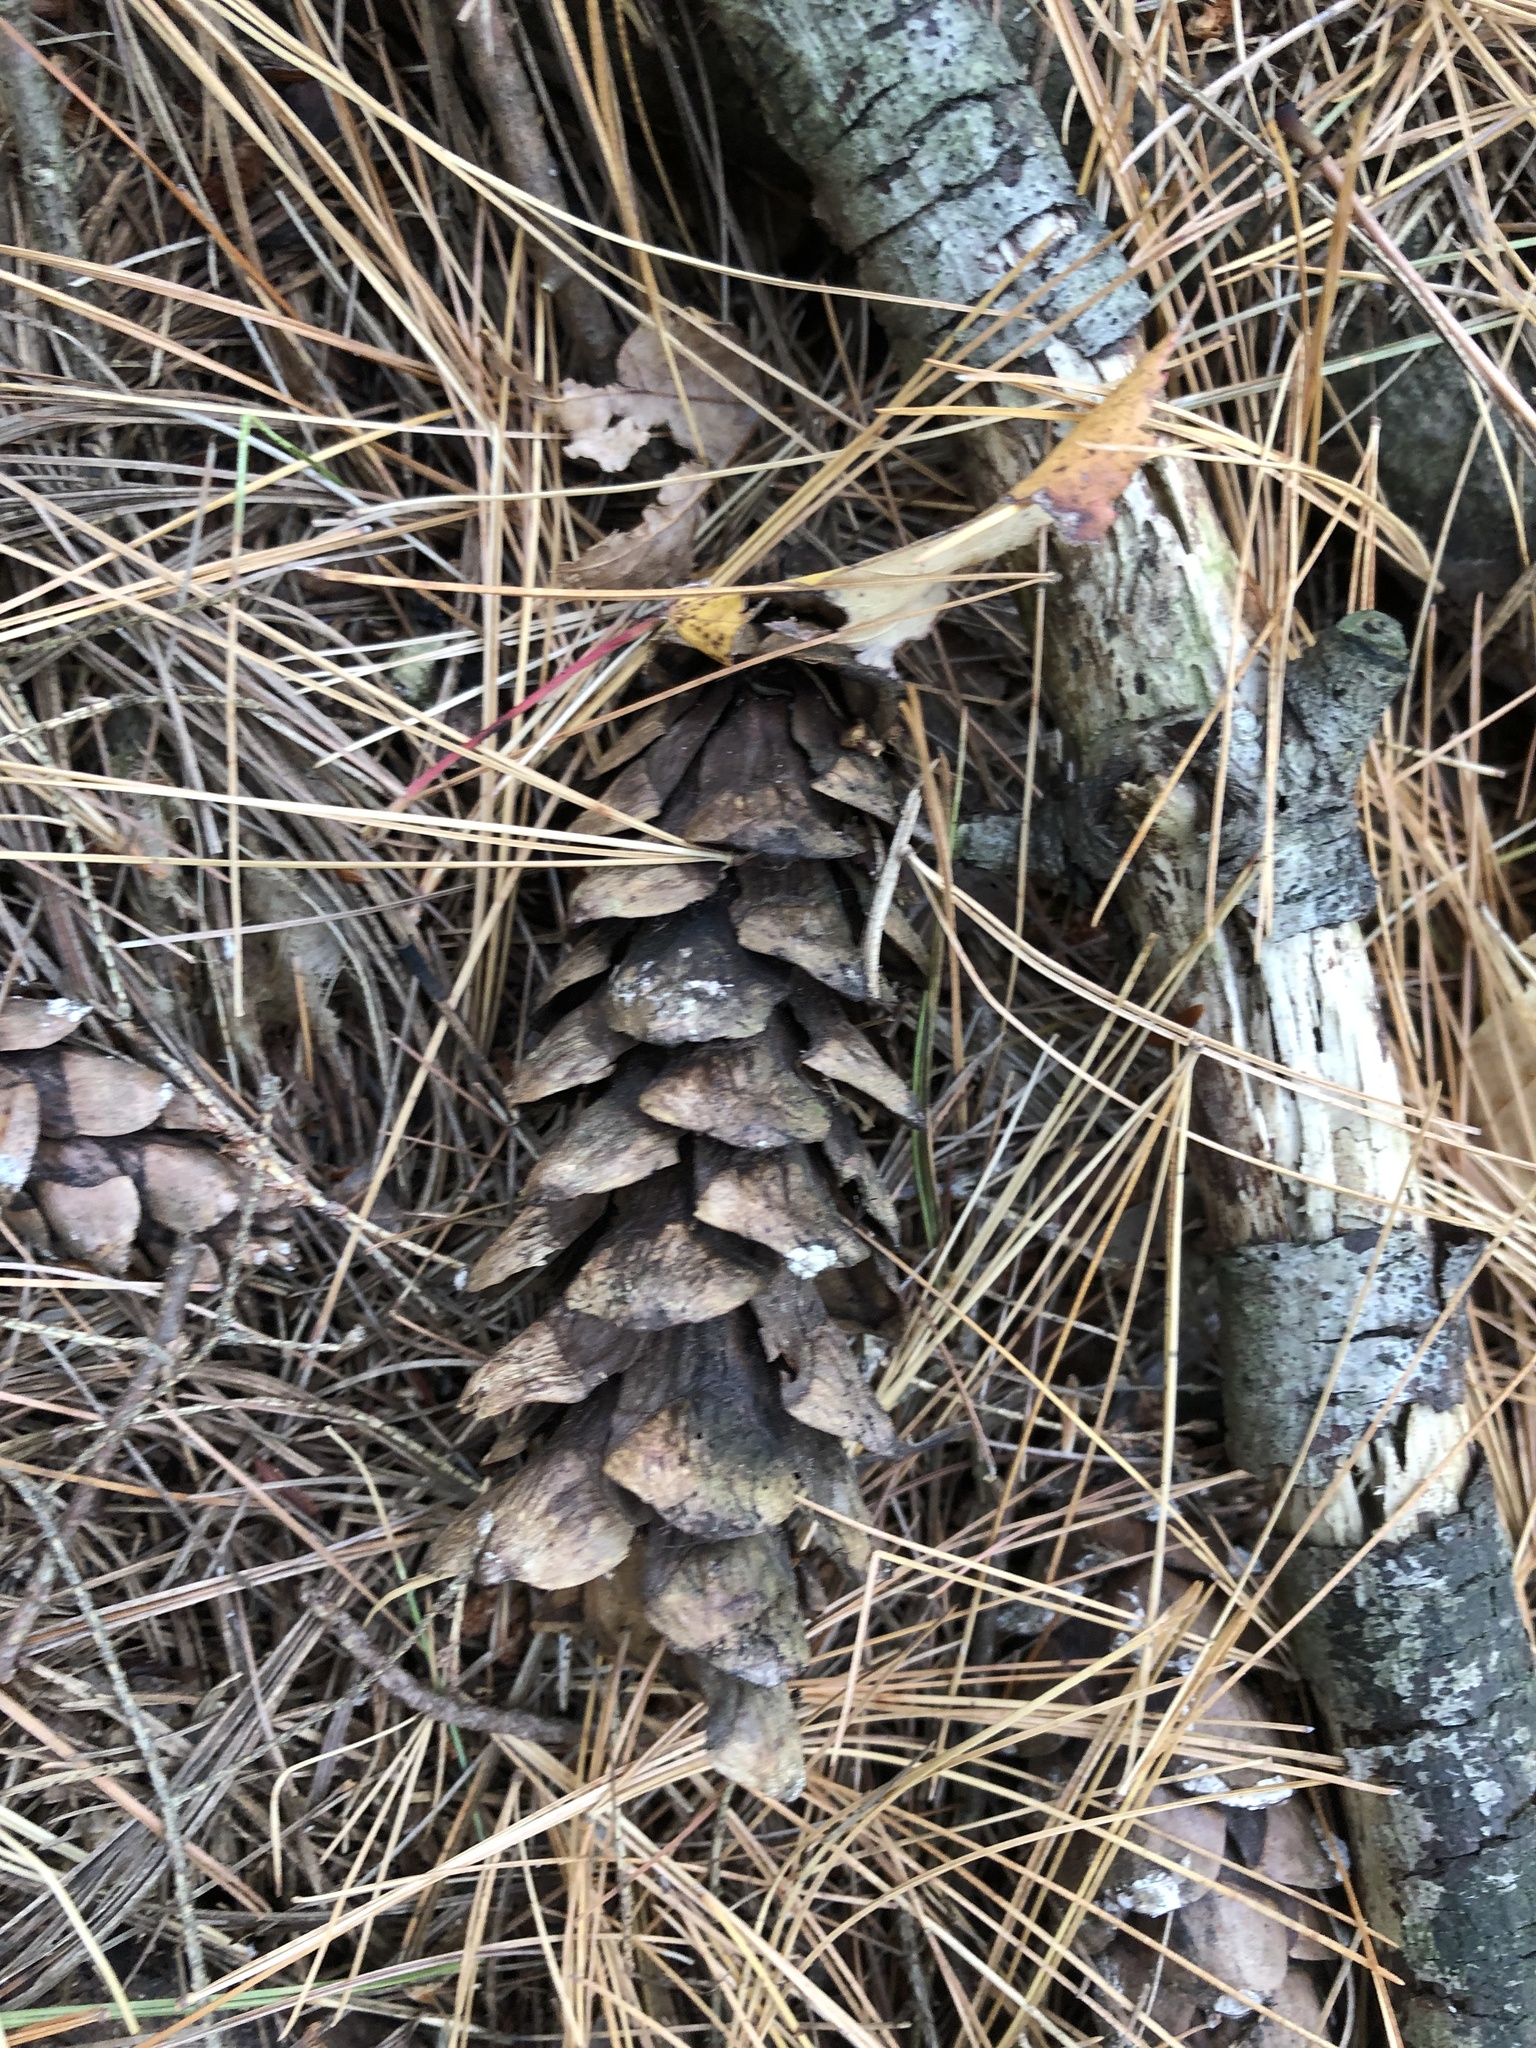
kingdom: Plantae
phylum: Tracheophyta
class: Pinopsida
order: Pinales
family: Pinaceae
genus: Pinus
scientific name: Pinus strobus
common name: Weymouth pine
